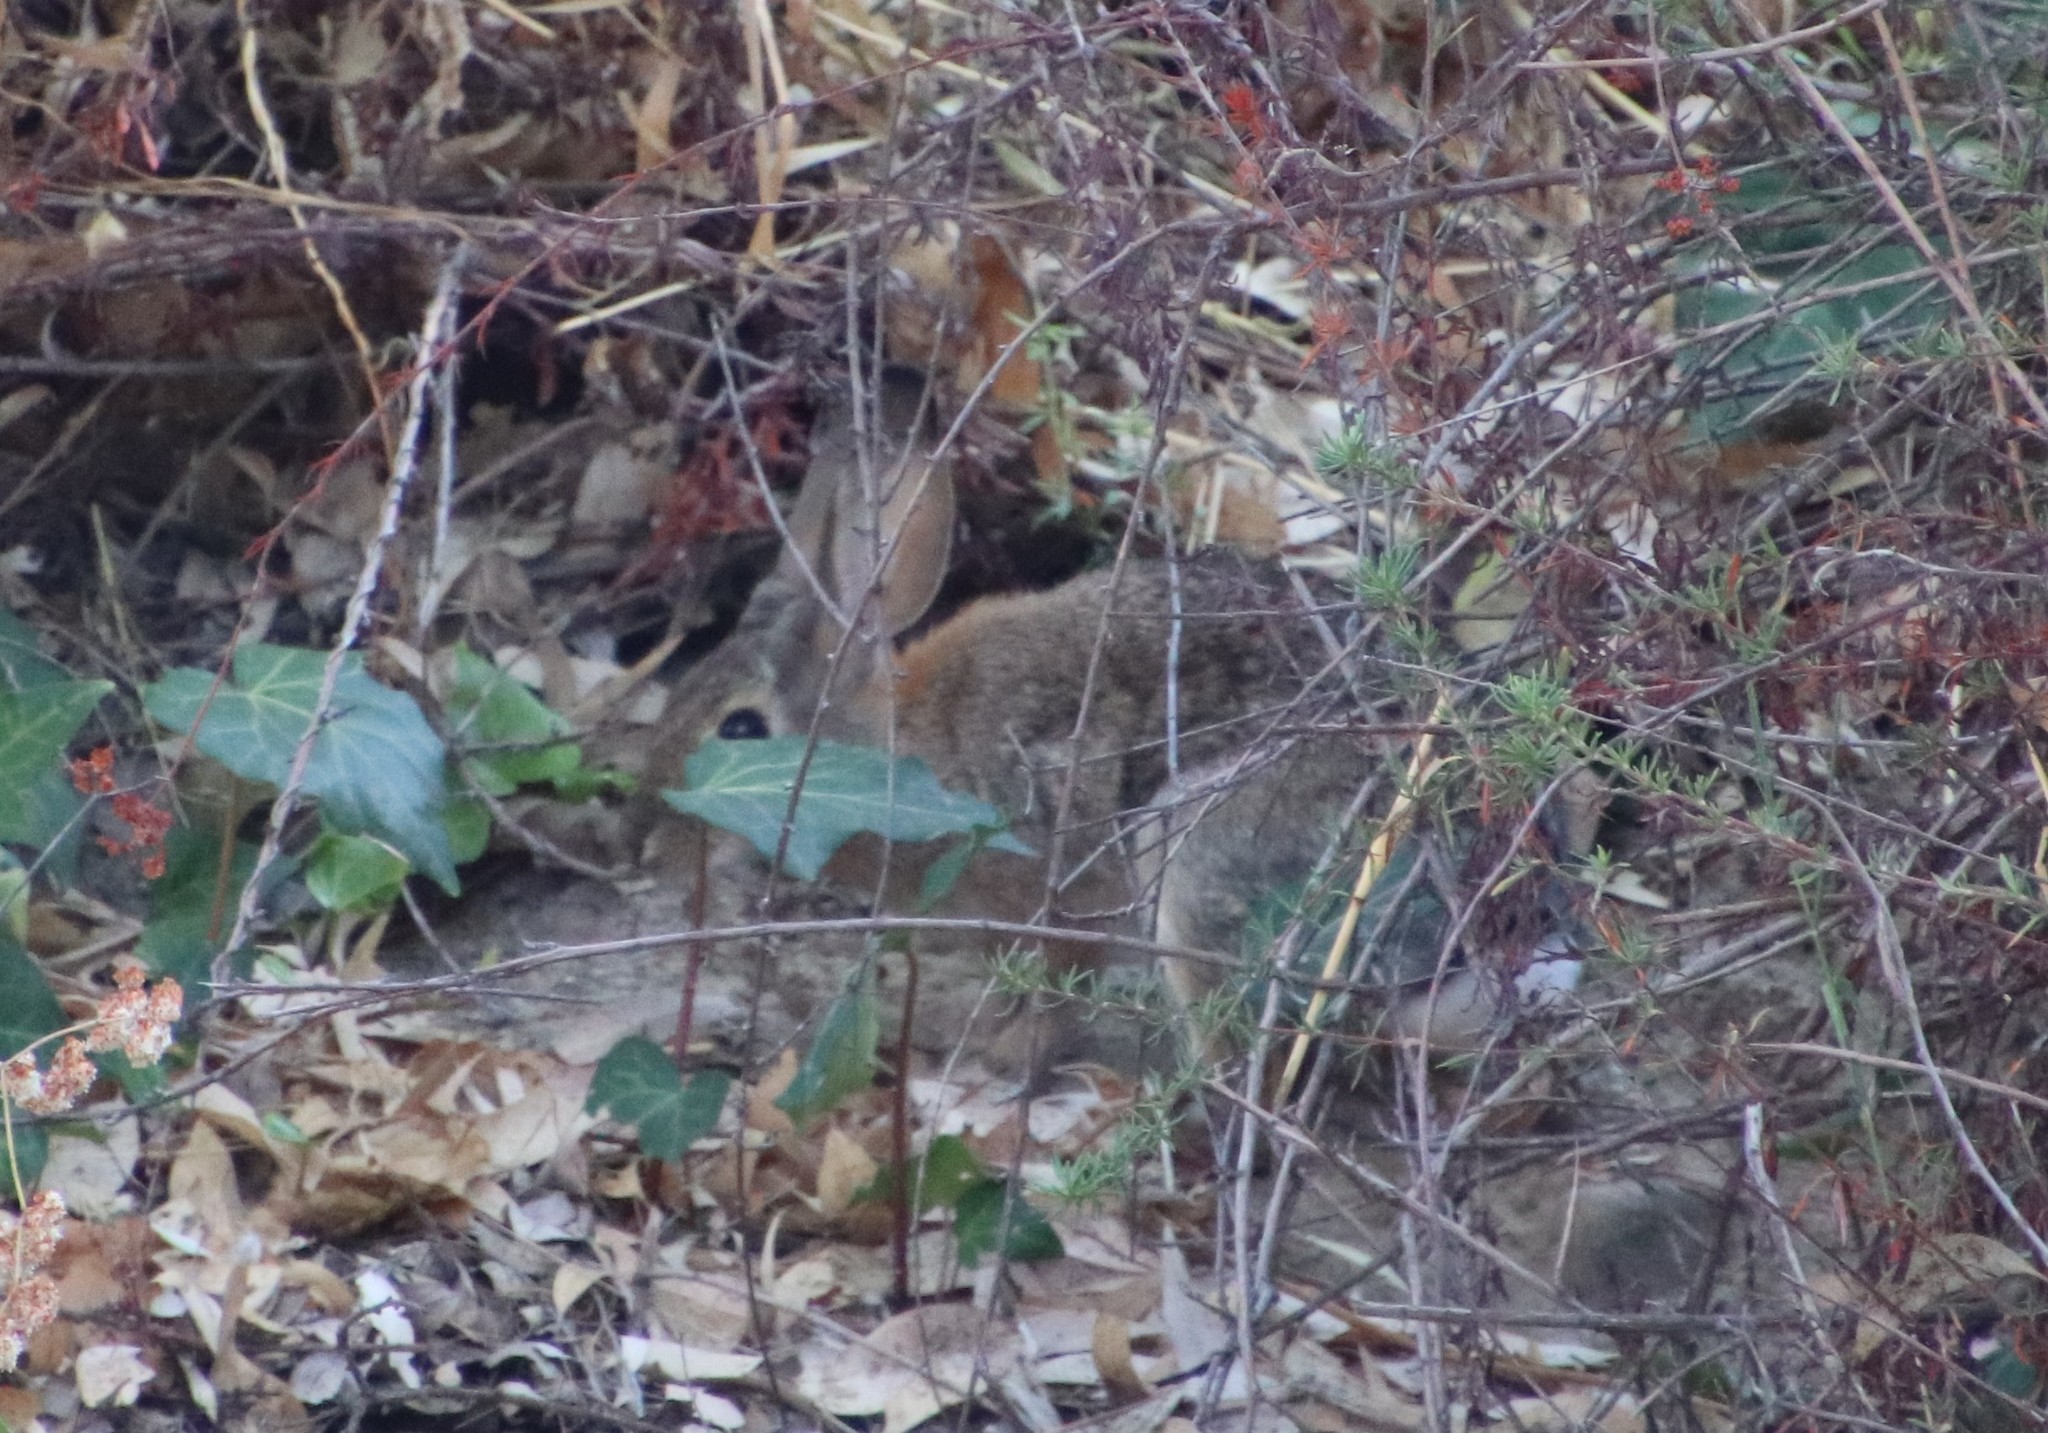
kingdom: Animalia
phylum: Chordata
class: Mammalia
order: Lagomorpha
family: Leporidae
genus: Sylvilagus
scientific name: Sylvilagus audubonii
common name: Desert cottontail
